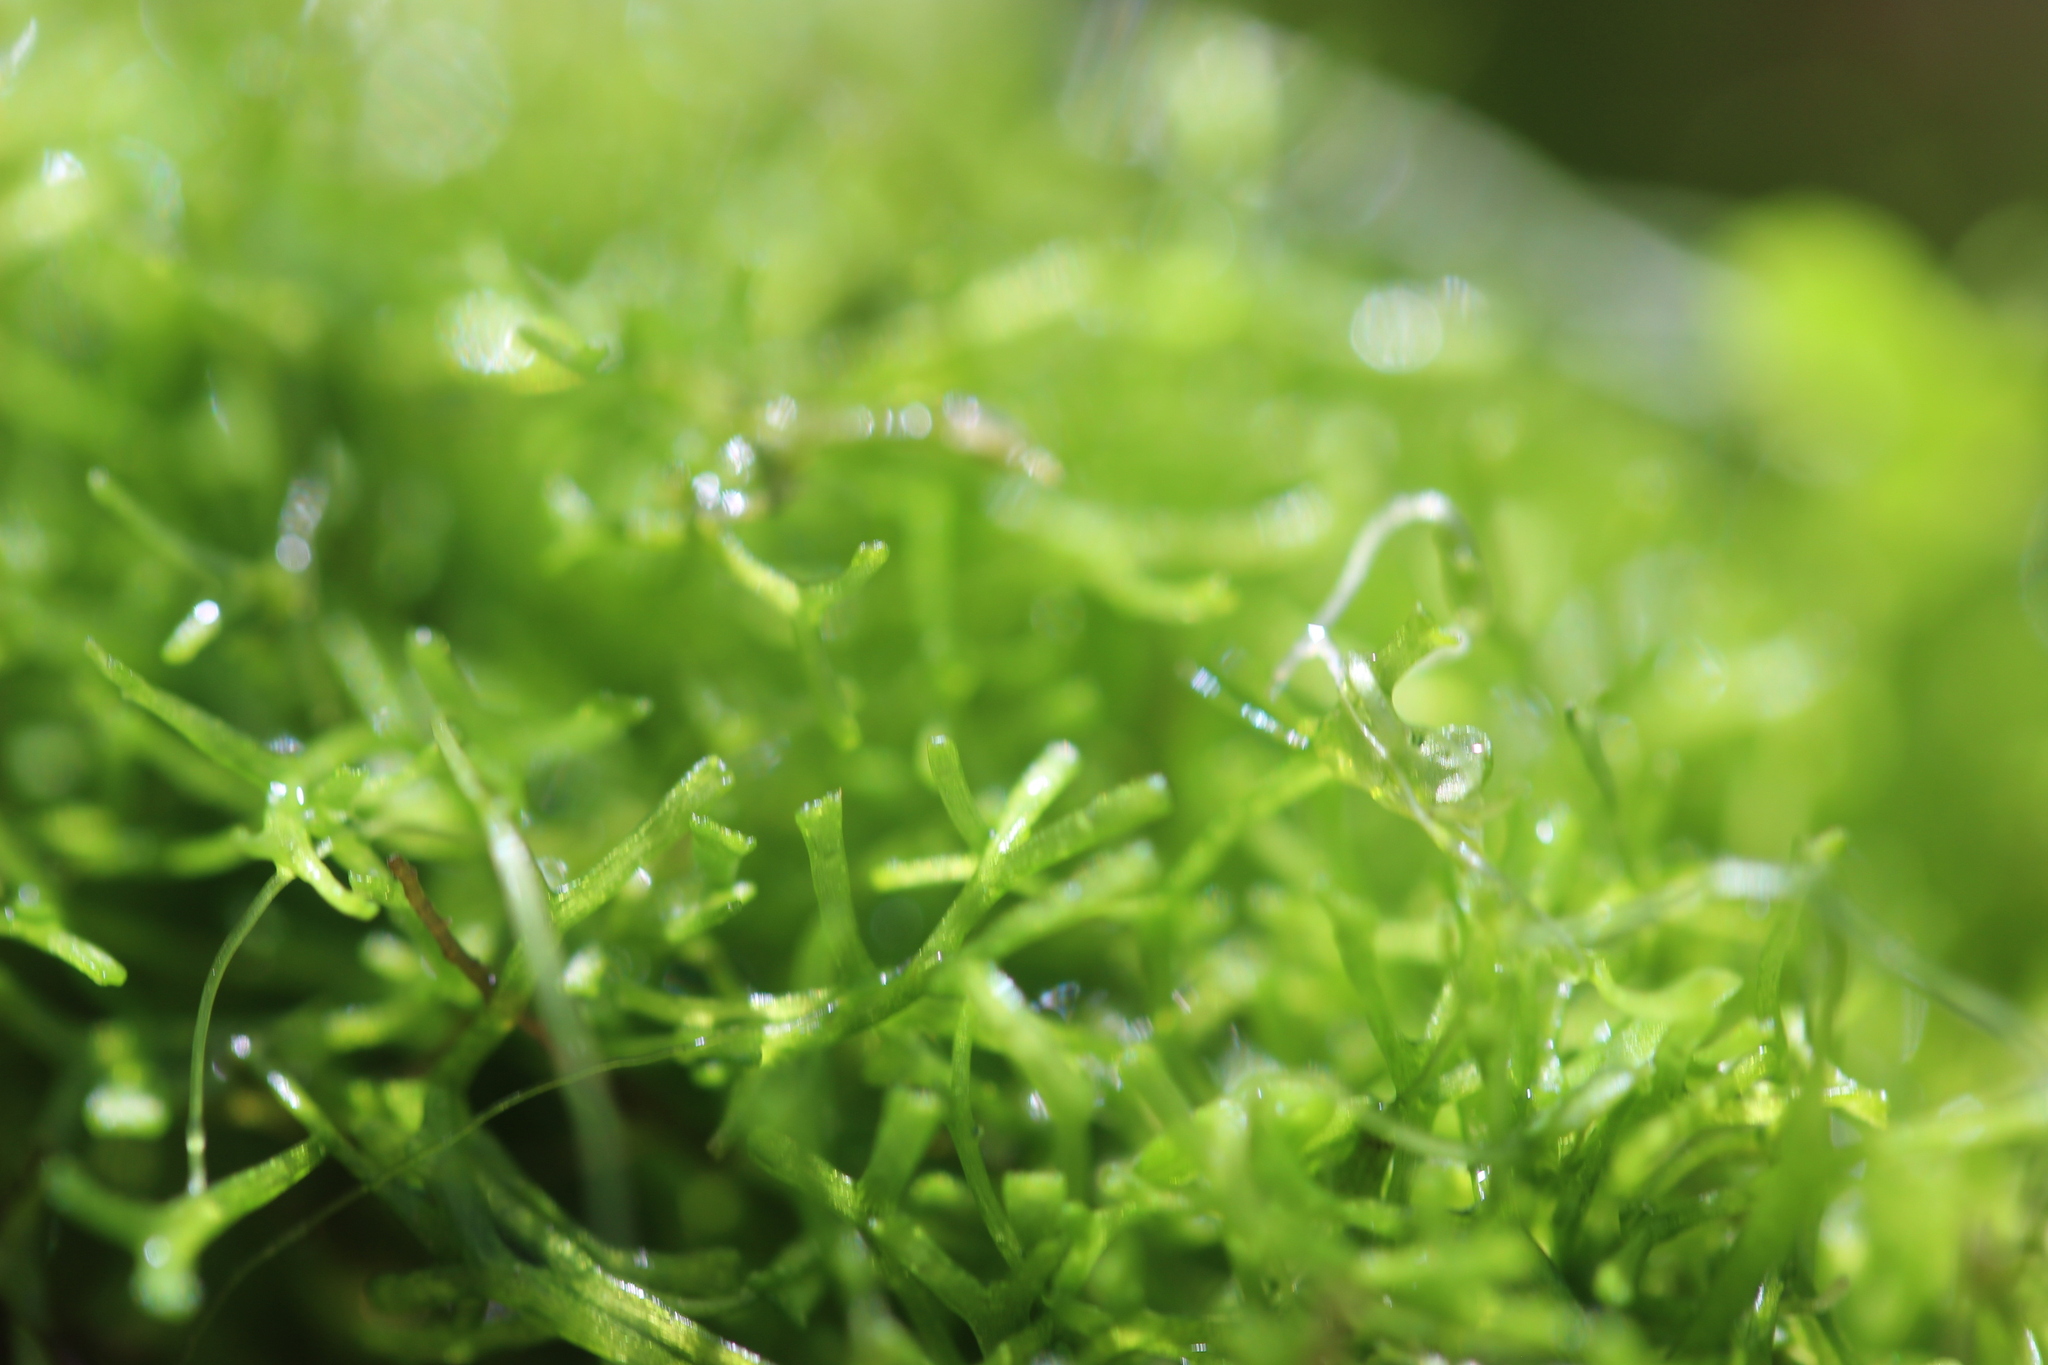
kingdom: Plantae
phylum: Marchantiophyta
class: Marchantiopsida
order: Marchantiales
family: Ricciaceae
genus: Riccia
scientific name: Riccia fluitans
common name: Floating crystalwort
